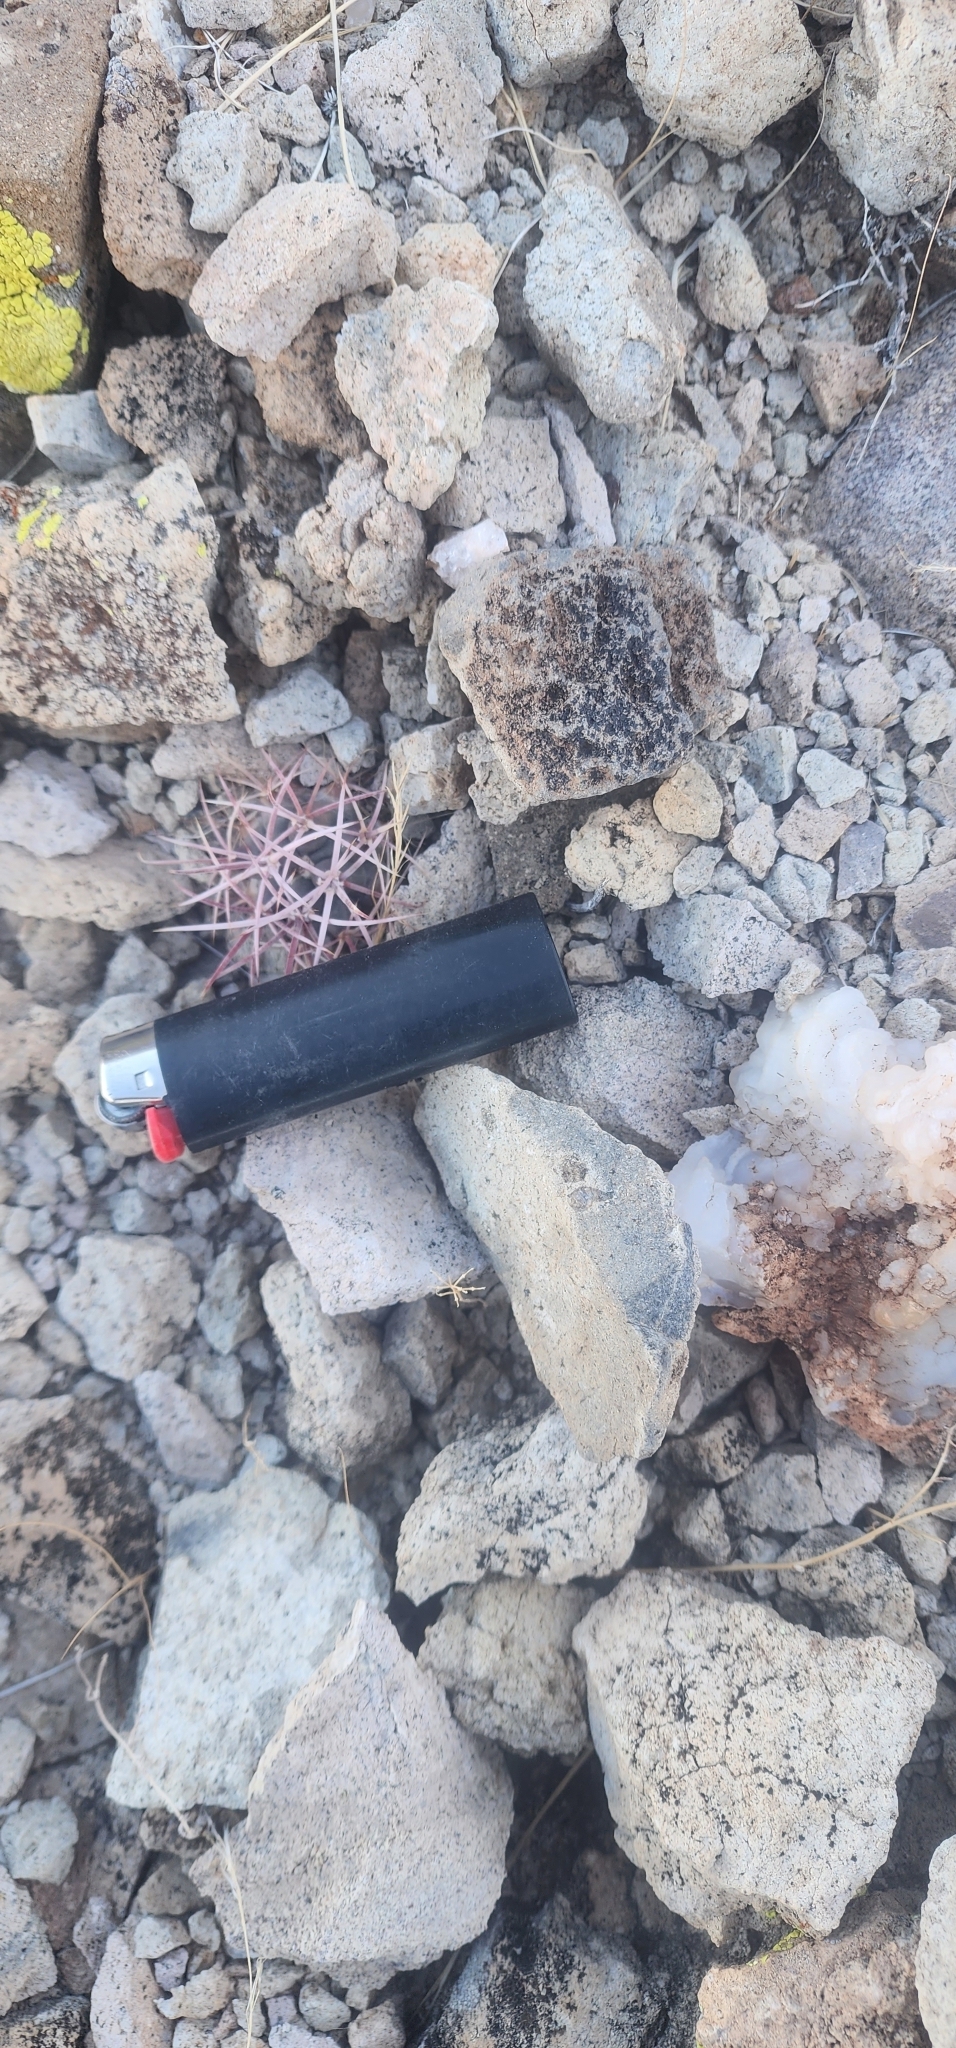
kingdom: Plantae
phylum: Tracheophyta
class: Magnoliopsida
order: Caryophyllales
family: Cactaceae
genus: Ferocactus
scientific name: Ferocactus cylindraceus
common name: California barrel cactus
